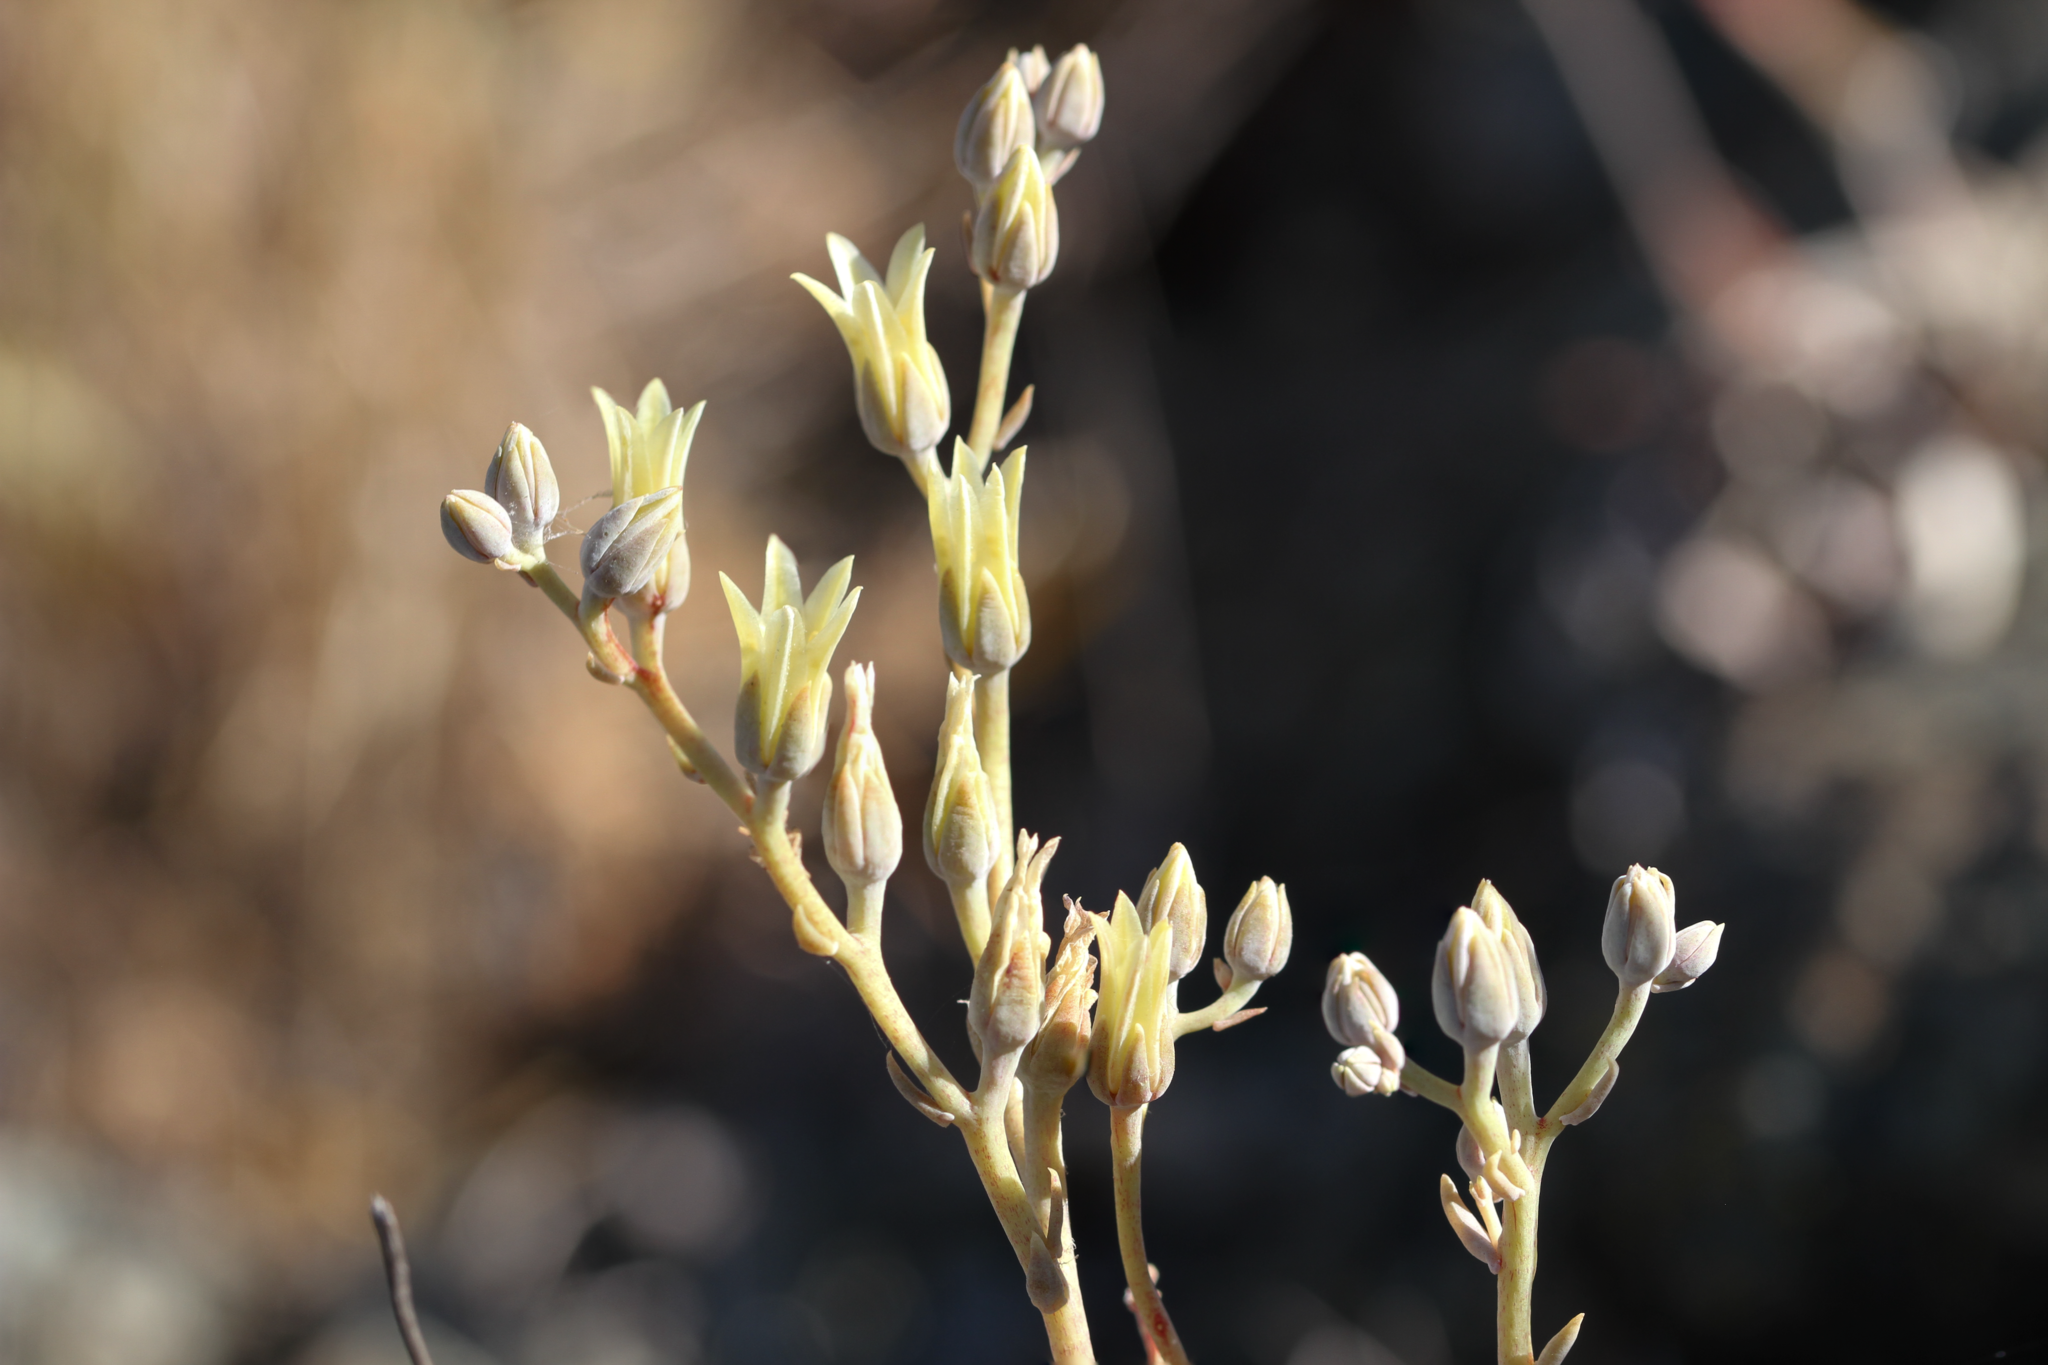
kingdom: Plantae
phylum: Tracheophyta
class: Magnoliopsida
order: Saxifragales
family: Crassulaceae
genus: Dudleya
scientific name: Dudleya abramsii
